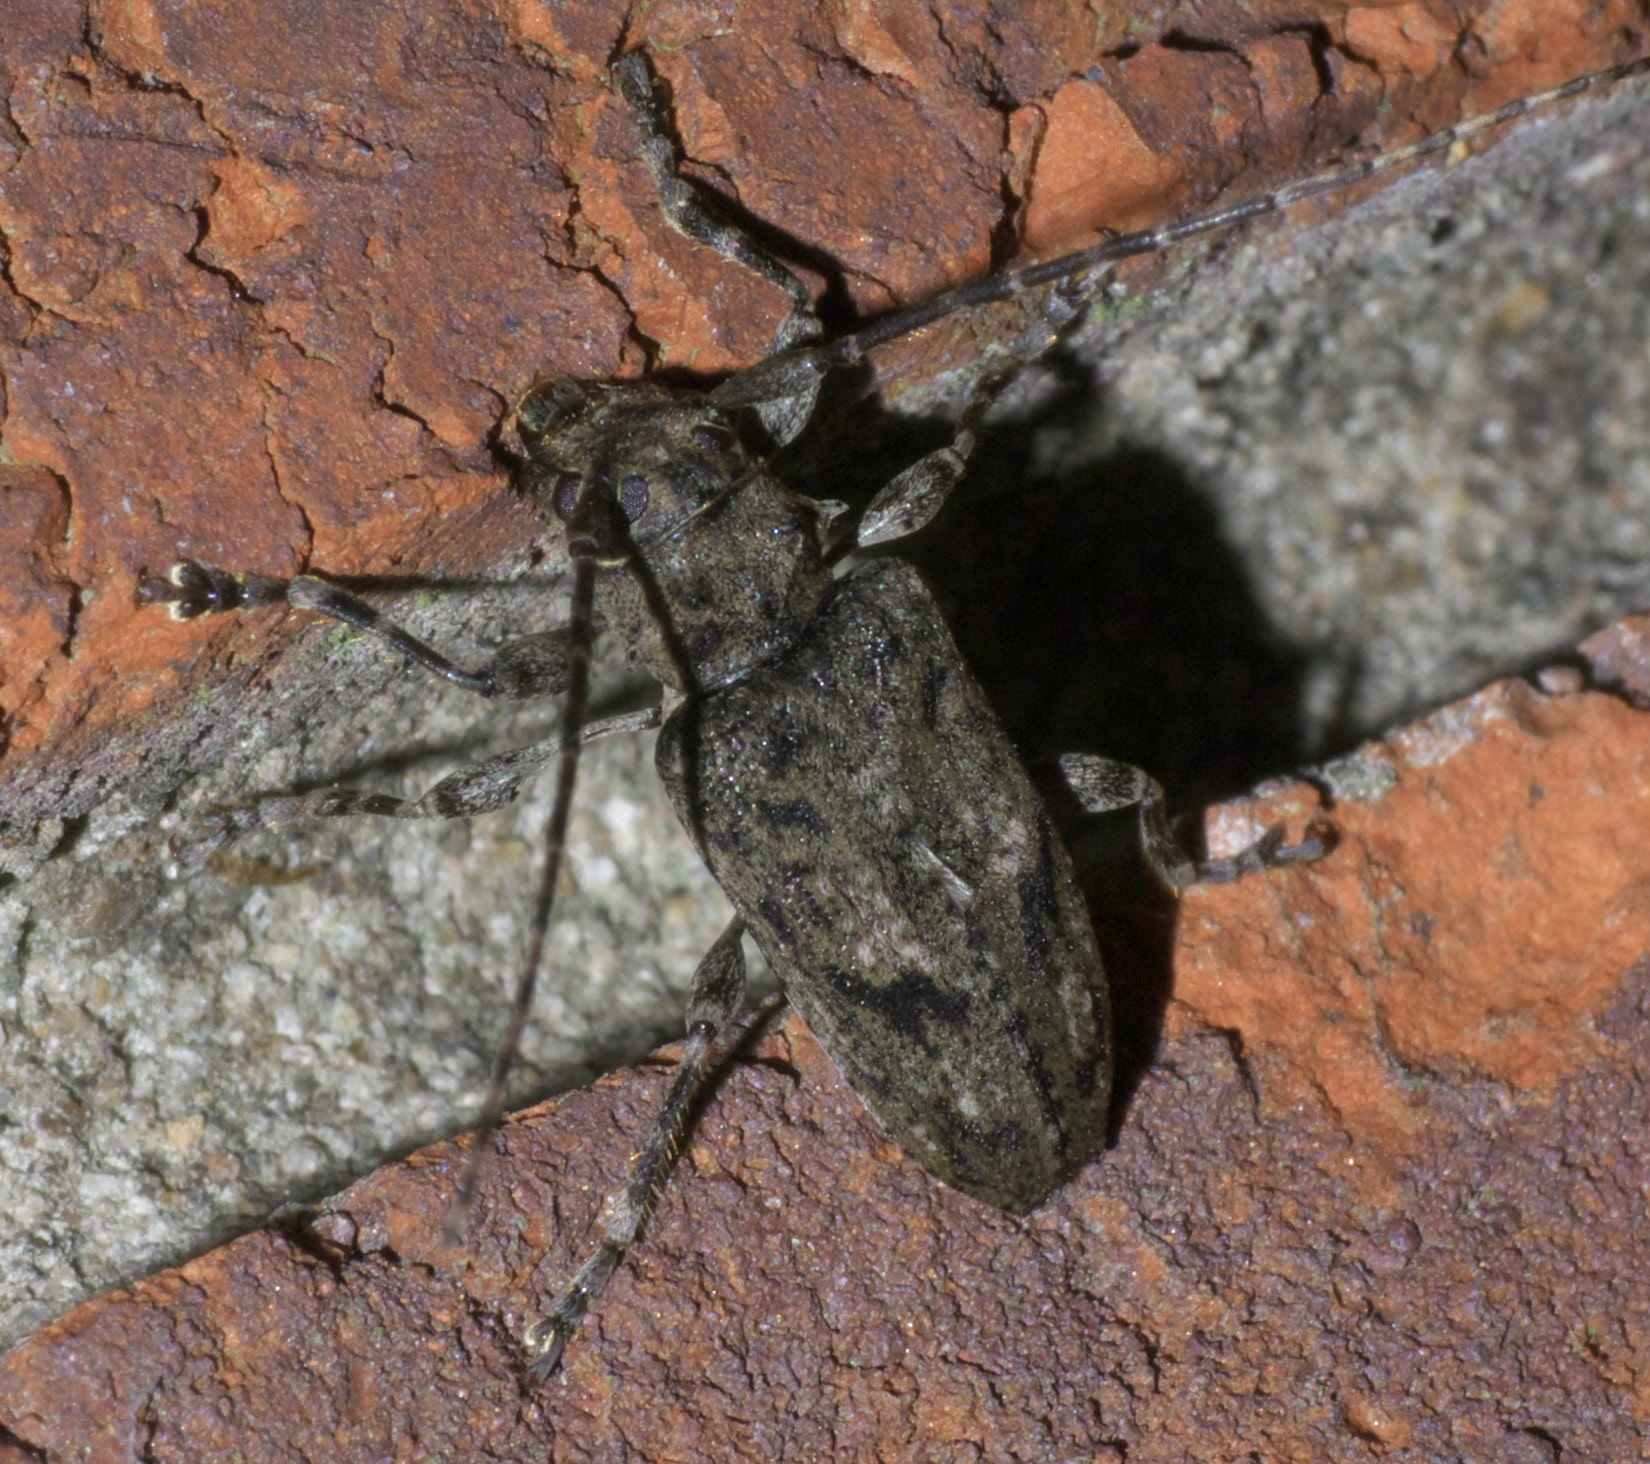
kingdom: Animalia
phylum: Arthropoda
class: Insecta
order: Coleoptera
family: Cerambycidae
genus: Aegomorphus
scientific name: Aegomorphus modestus
